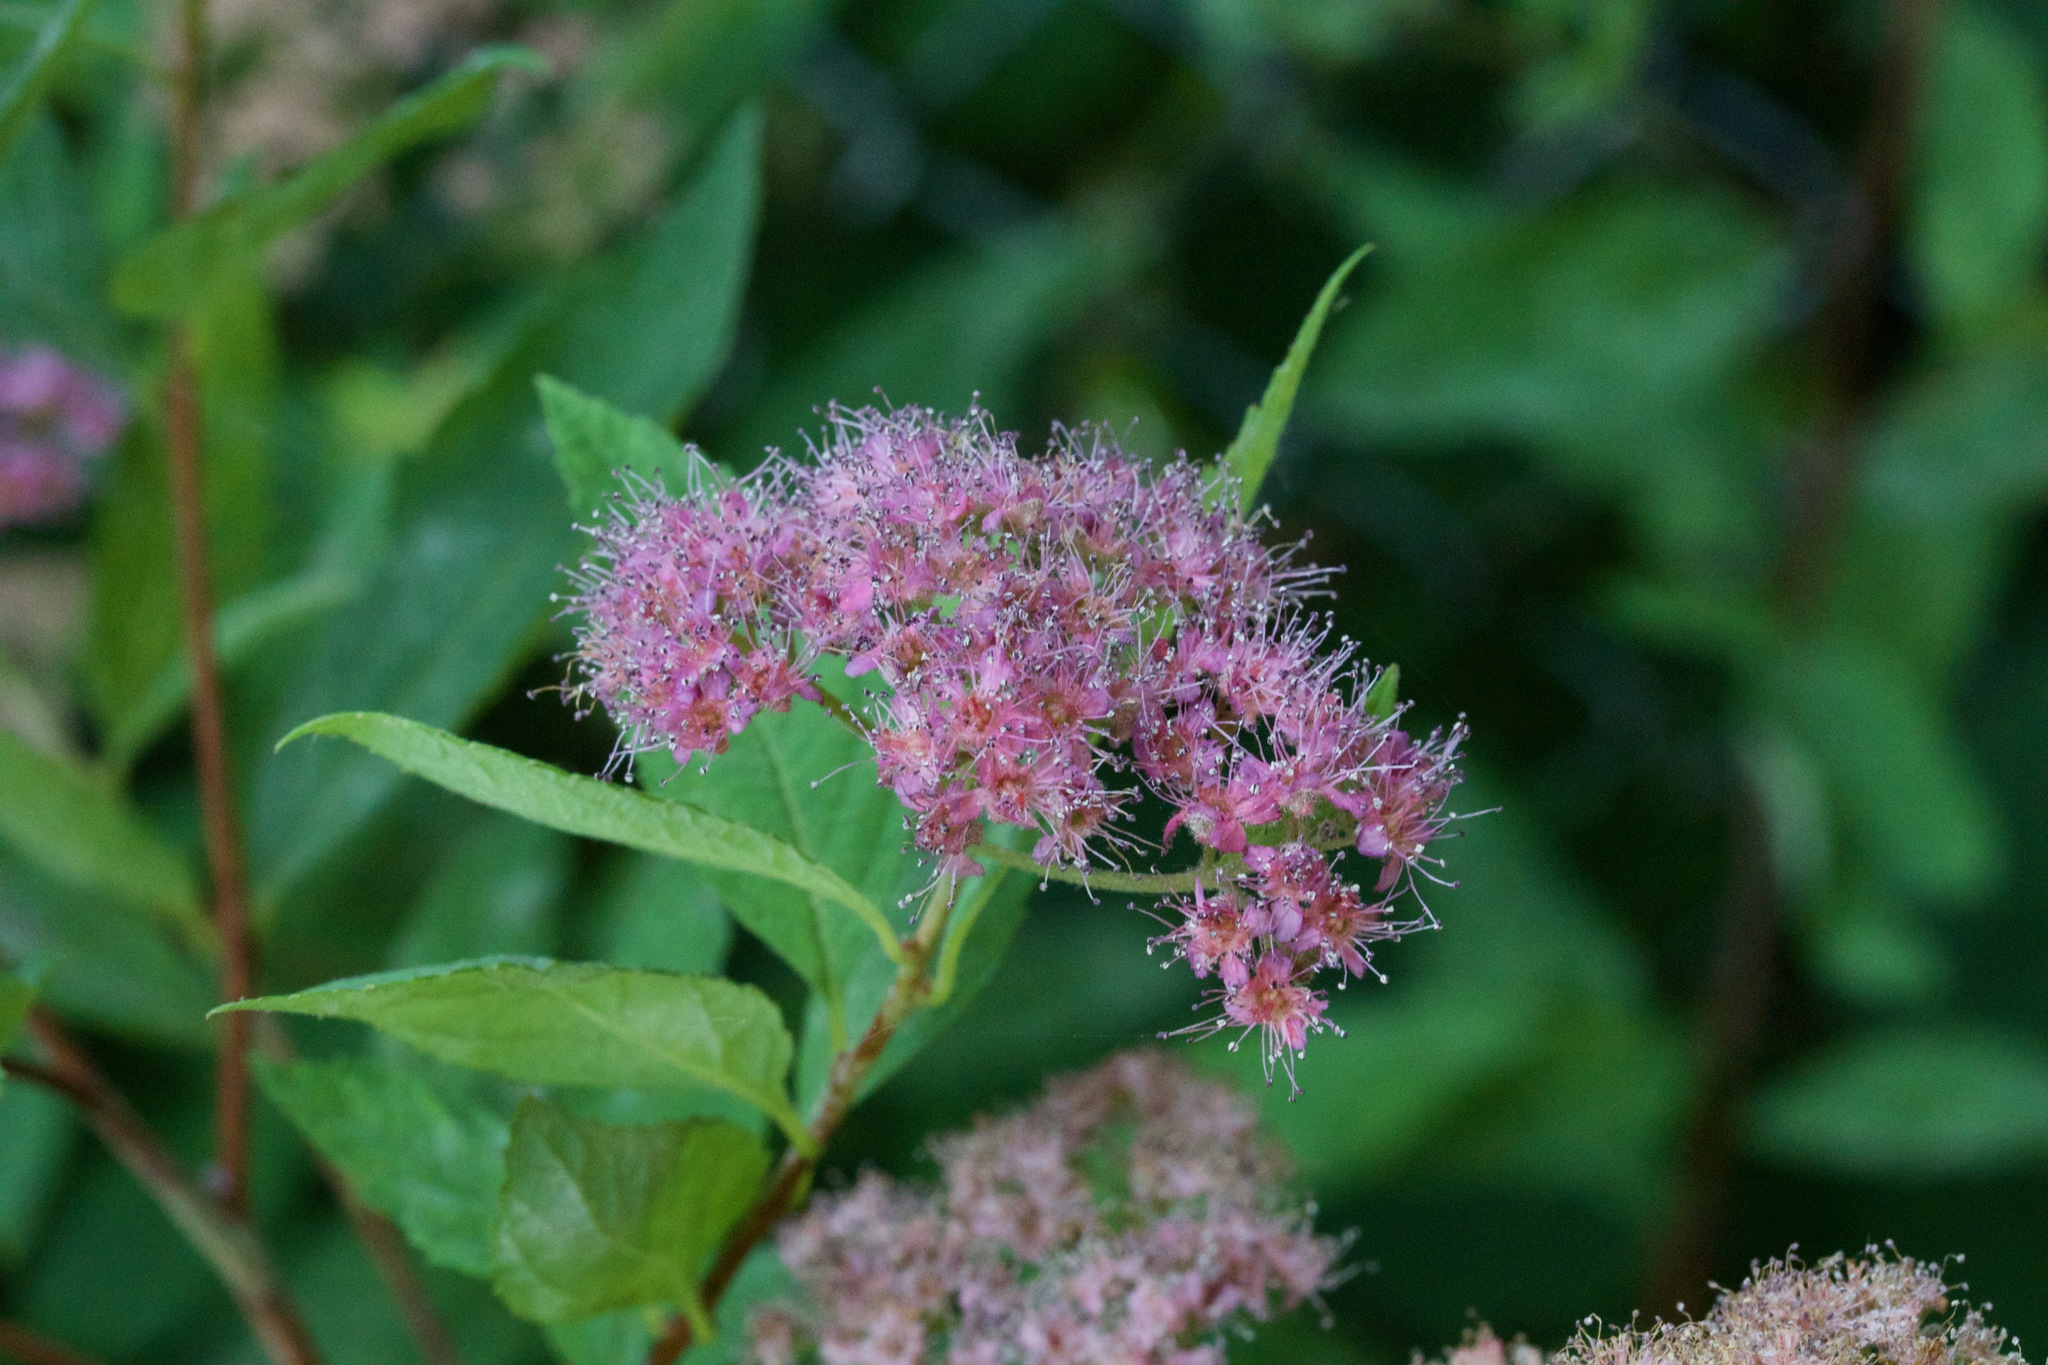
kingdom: Plantae
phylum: Tracheophyta
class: Magnoliopsida
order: Rosales
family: Rosaceae
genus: Spiraea
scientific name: Spiraea japonica
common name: Japanese spiraea
